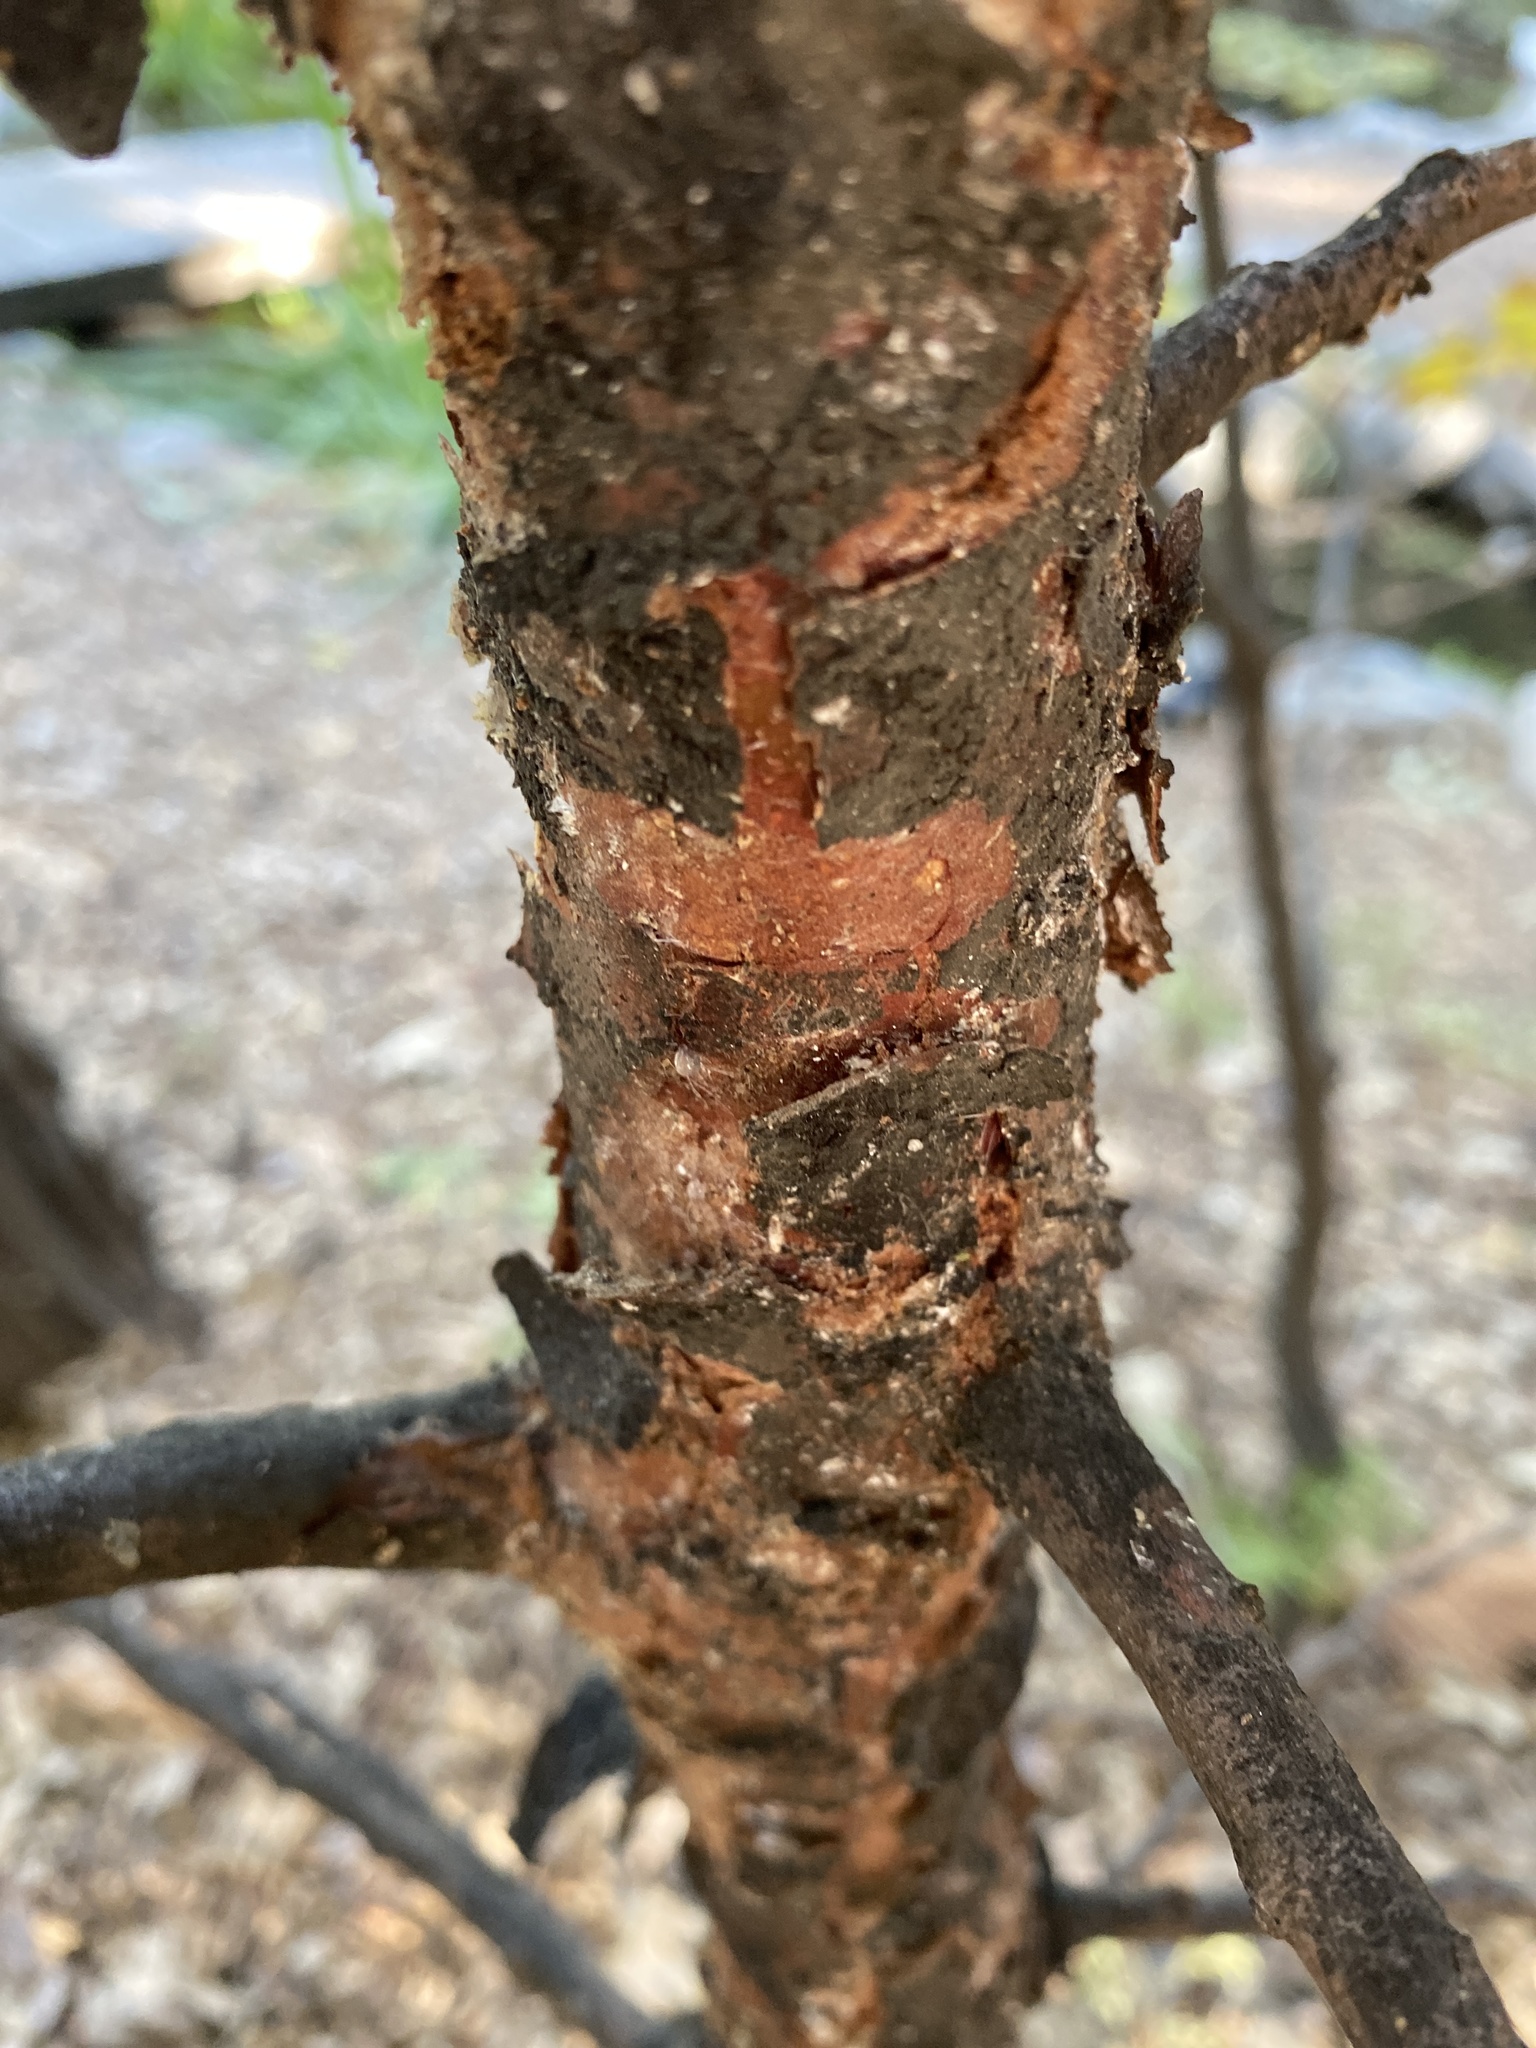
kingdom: Plantae
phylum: Tracheophyta
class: Pinopsida
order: Pinales
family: Cupressaceae
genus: Calocedrus
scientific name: Calocedrus decurrens
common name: Californian incense-cedar
